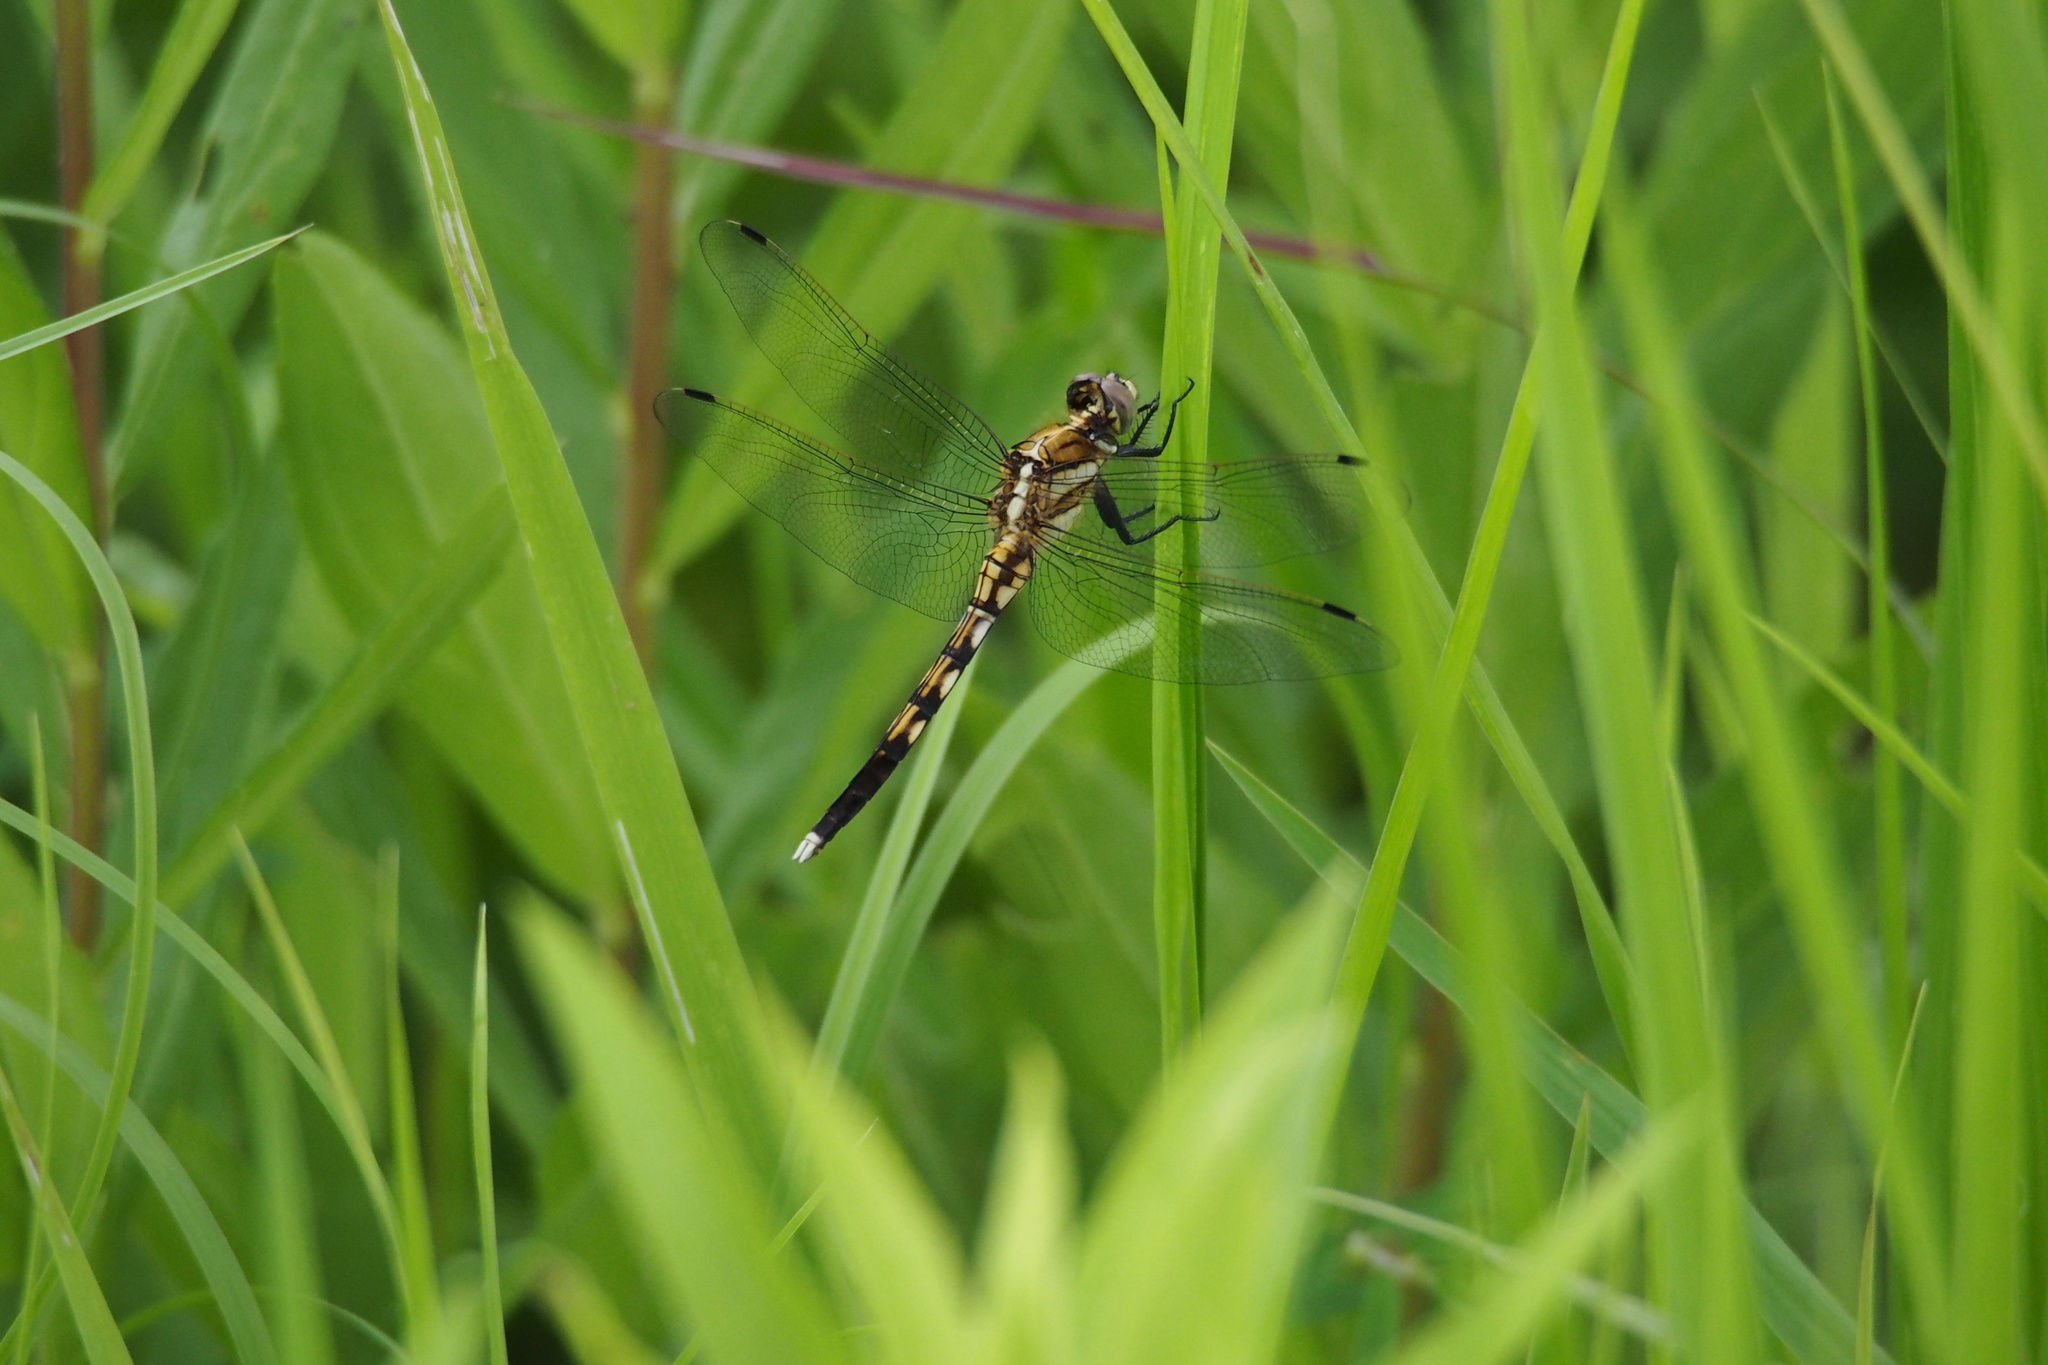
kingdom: Animalia
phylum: Arthropoda
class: Insecta
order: Odonata
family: Libellulidae
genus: Orthetrum
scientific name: Orthetrum albistylum
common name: White-tailed skimmer
